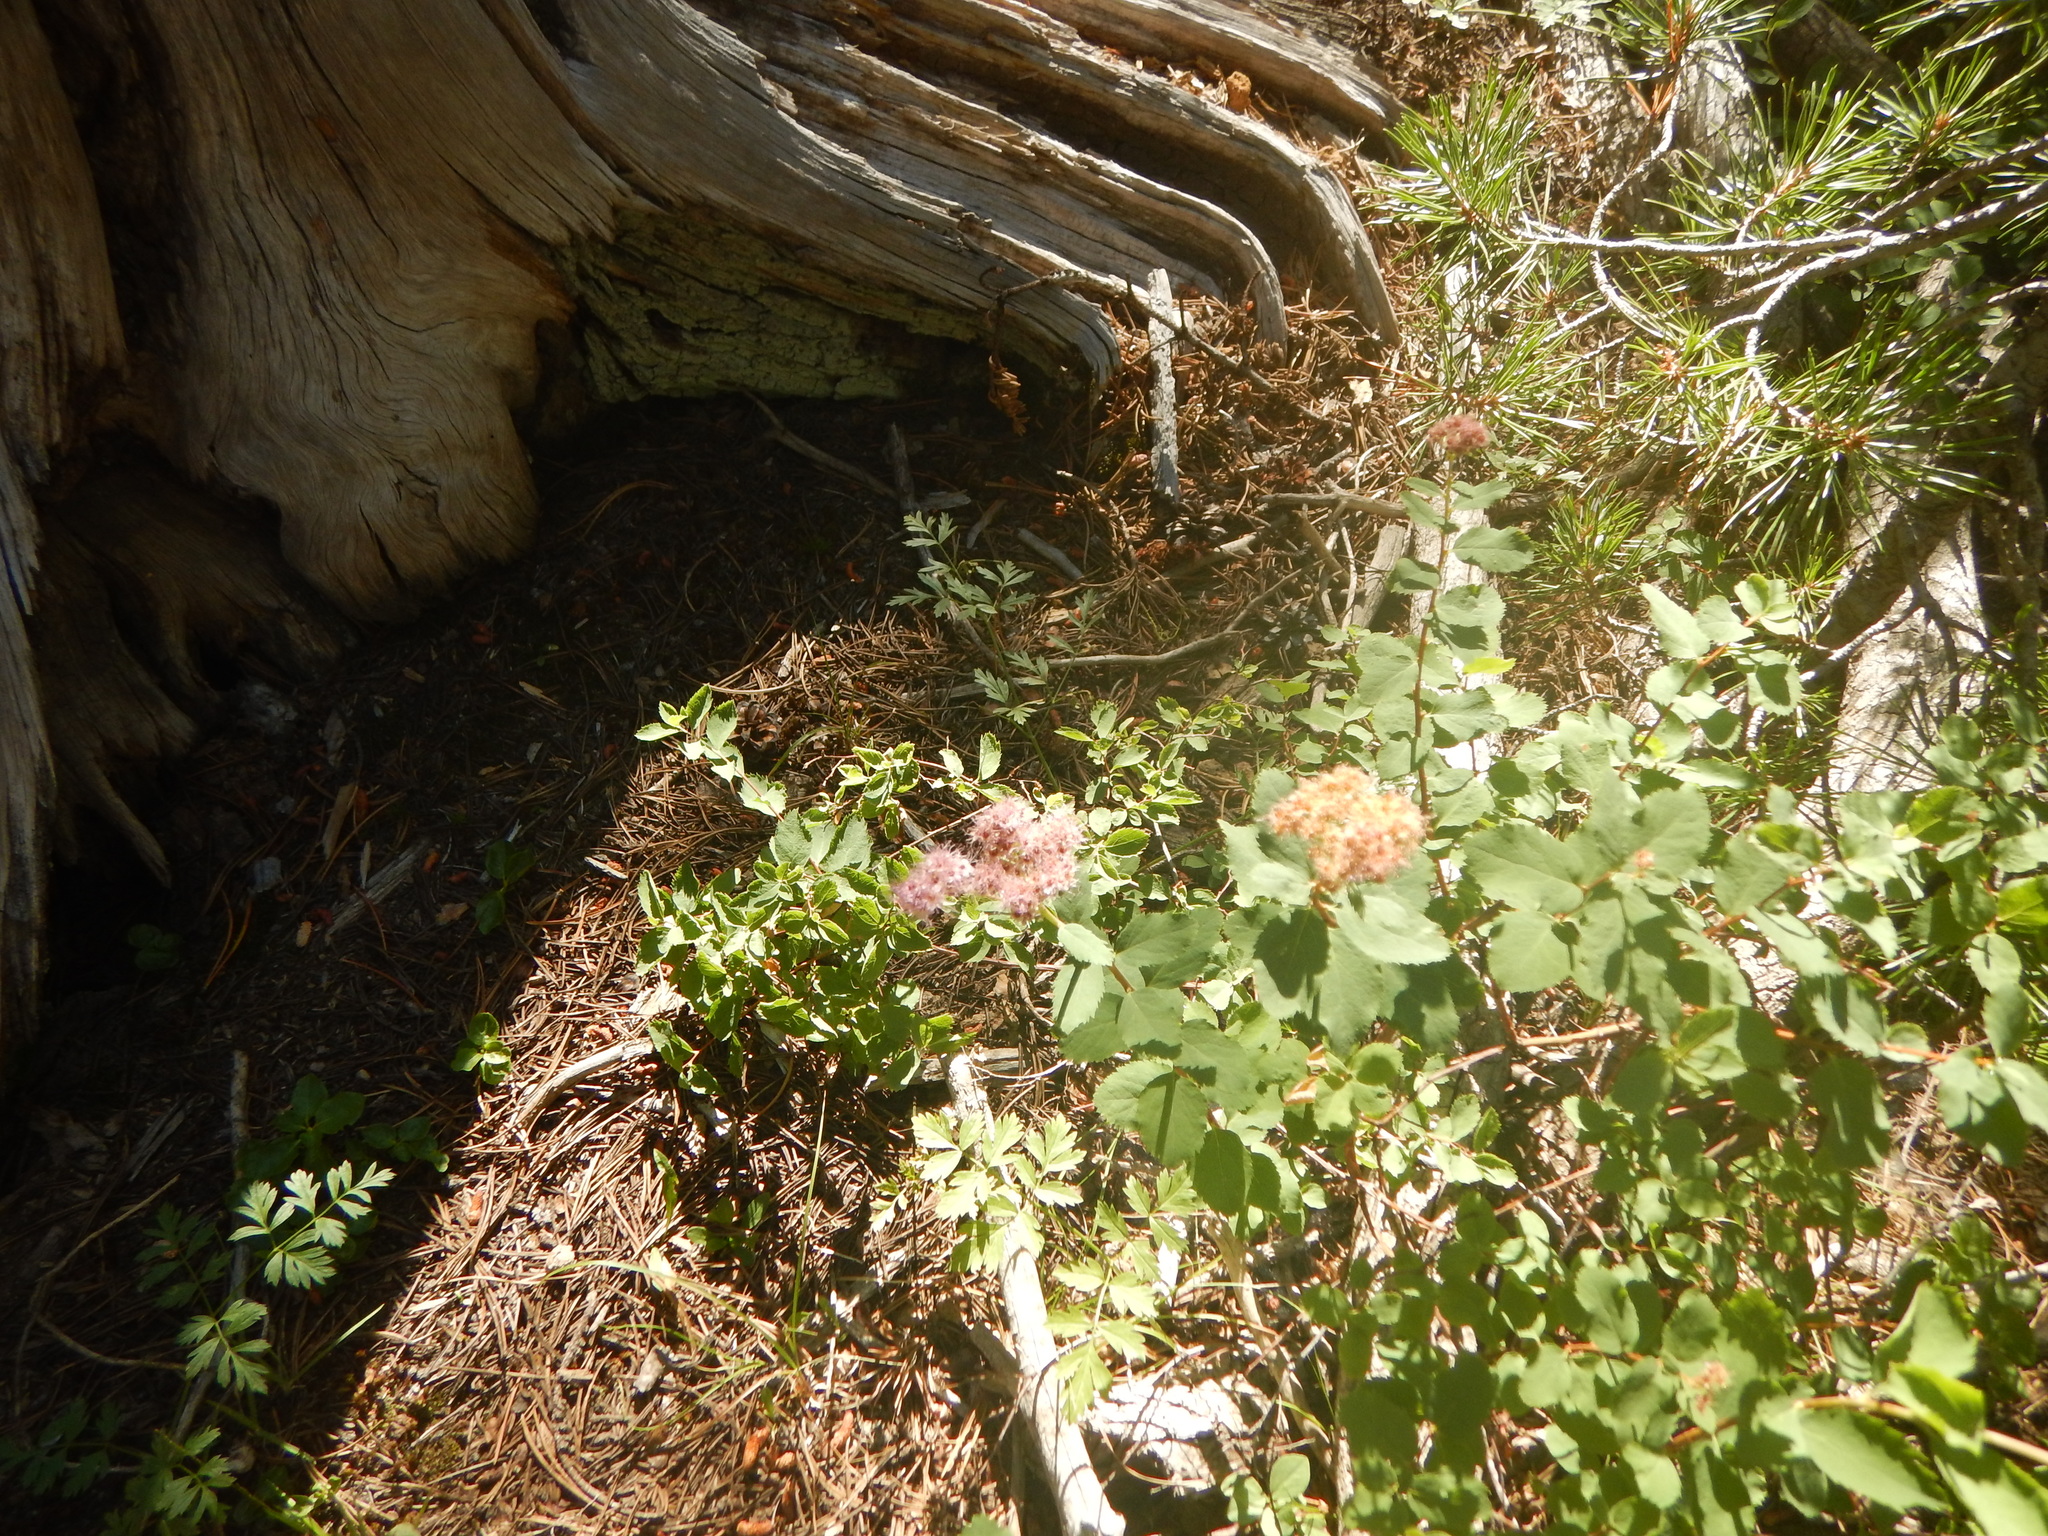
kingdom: Plantae
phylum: Tracheophyta
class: Magnoliopsida
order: Rosales
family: Rosaceae
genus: Spiraea
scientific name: Spiraea splendens
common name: Subalpine meadowsweet
